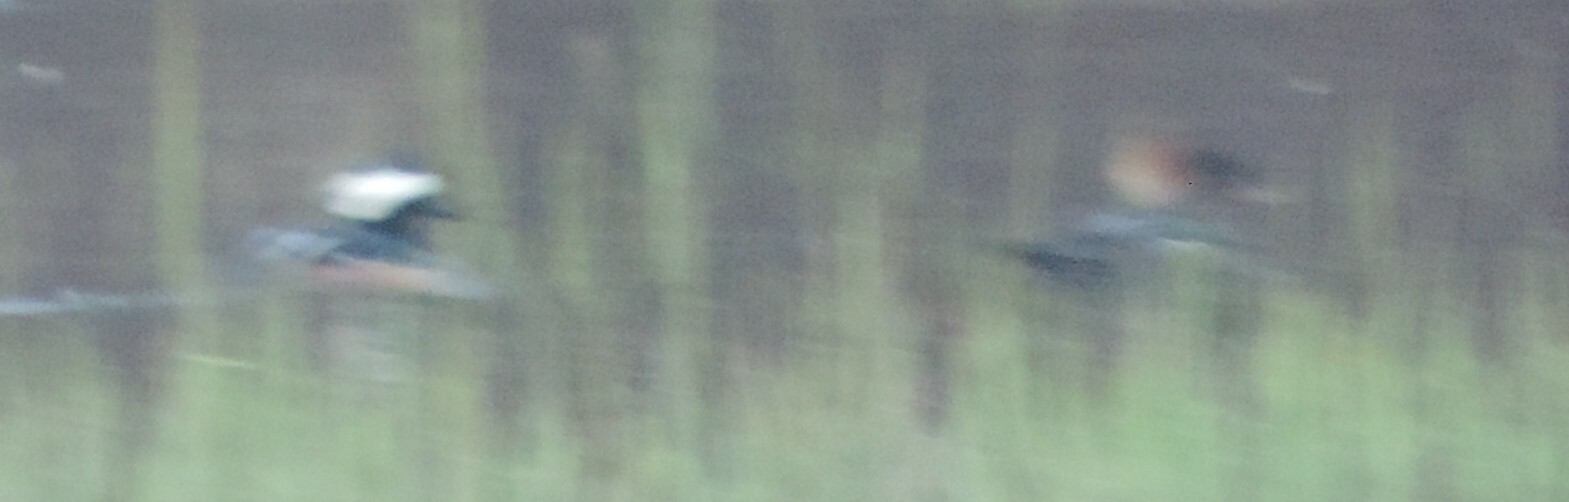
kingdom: Animalia
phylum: Chordata
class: Aves
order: Anseriformes
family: Anatidae
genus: Lophodytes
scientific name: Lophodytes cucullatus
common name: Hooded merganser
